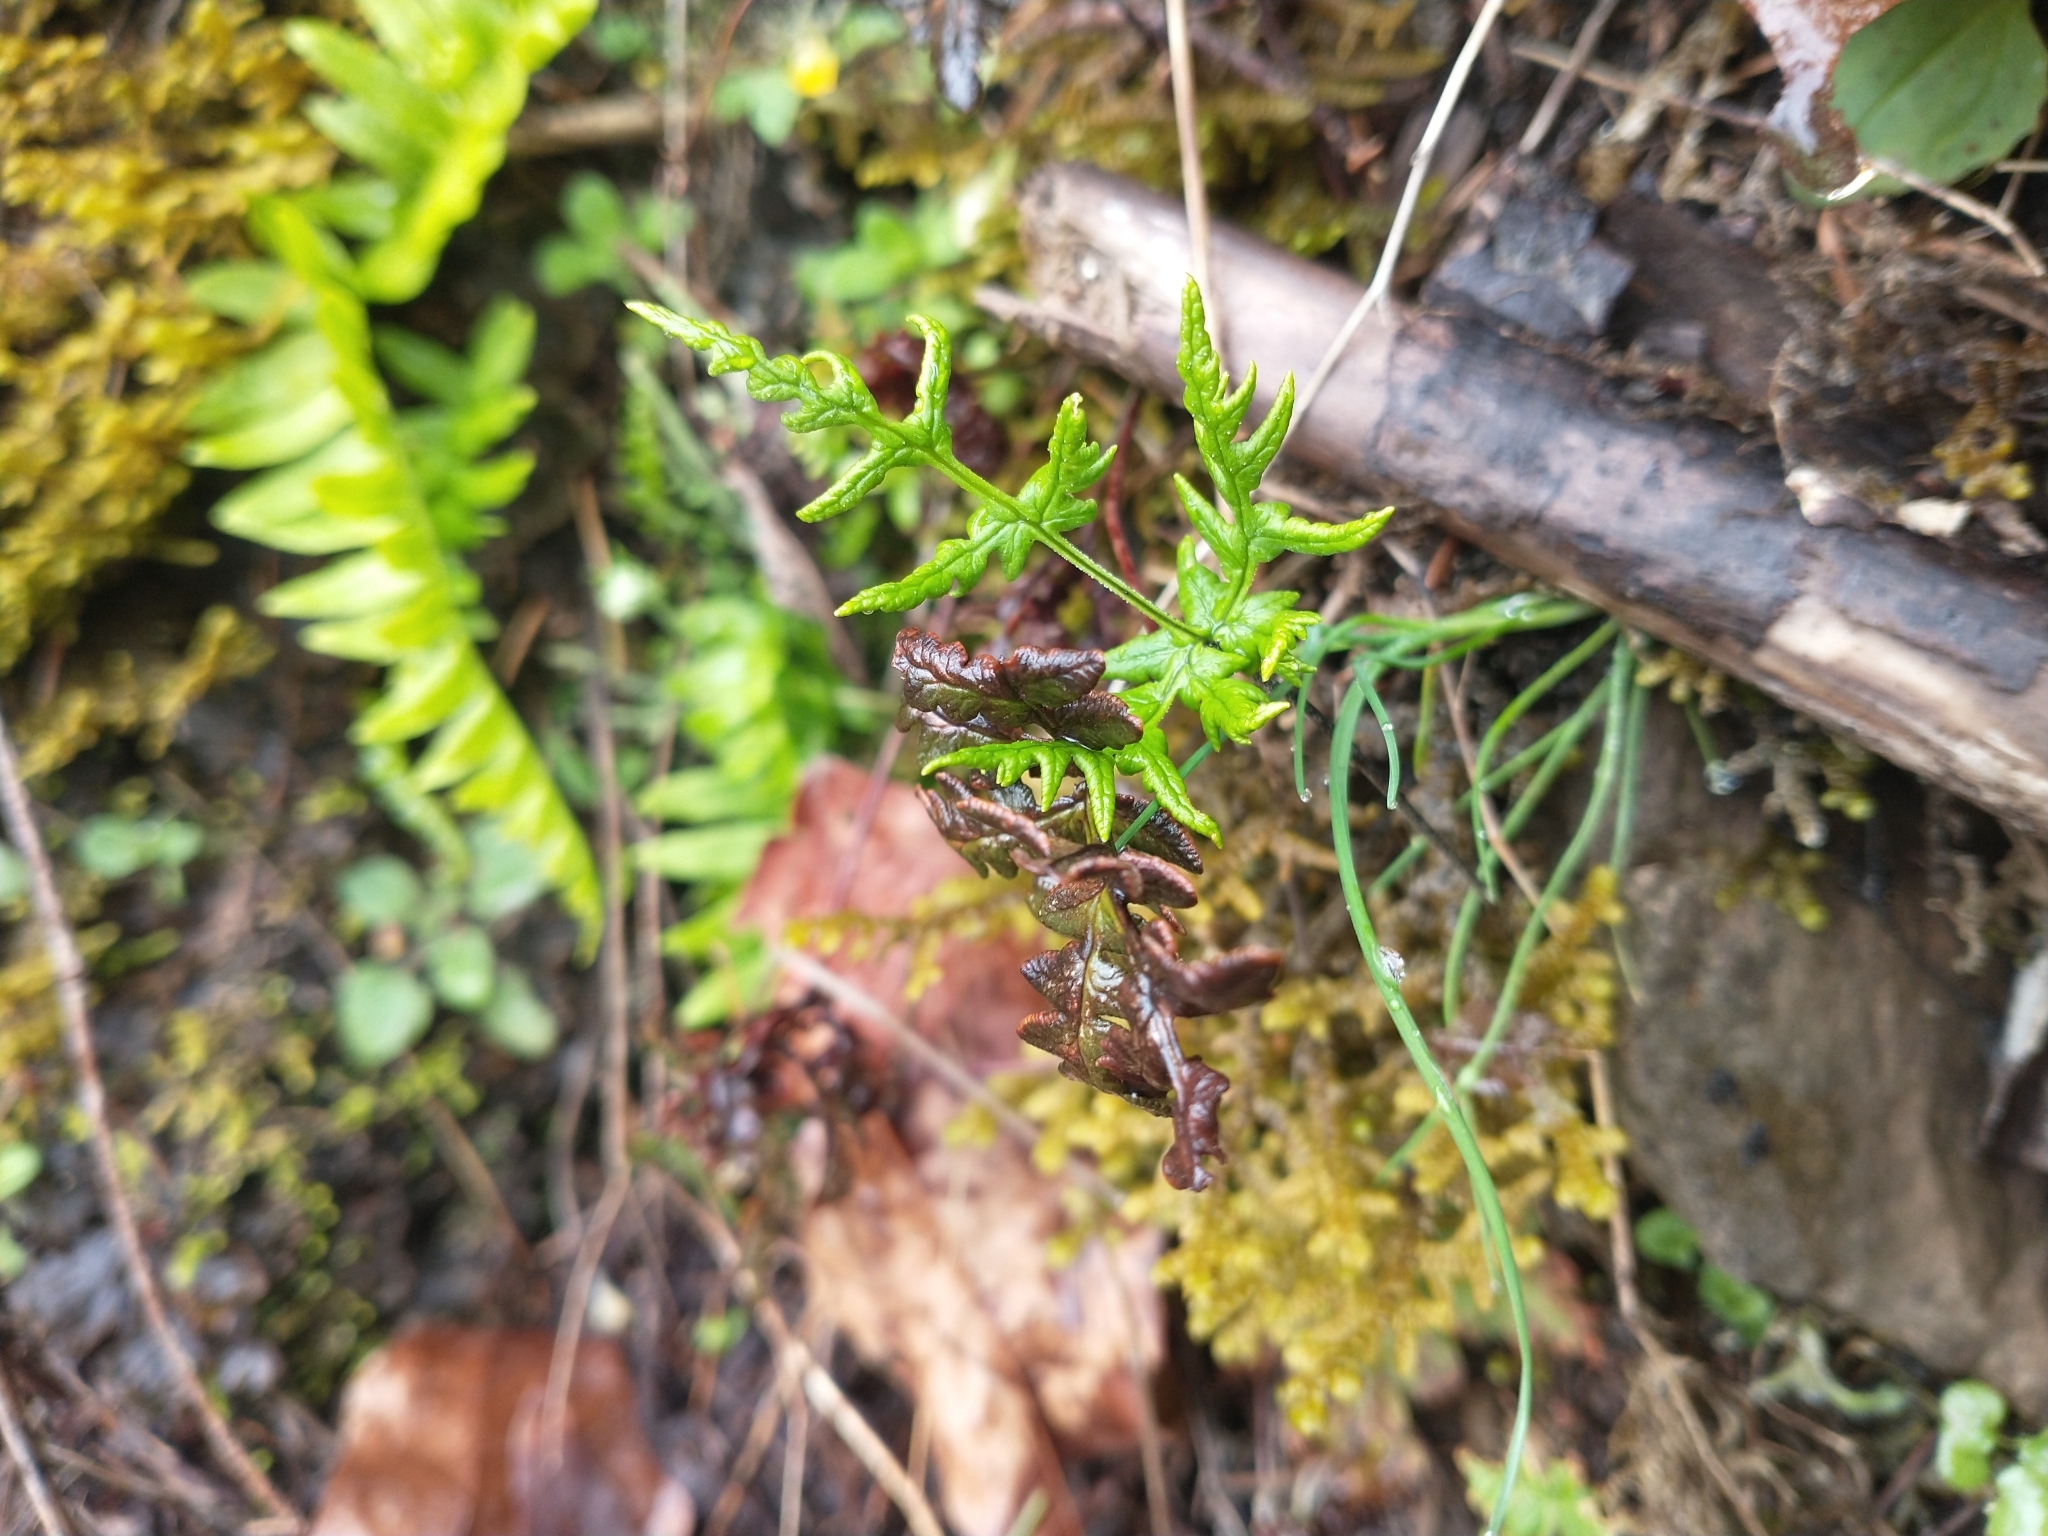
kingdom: Plantae
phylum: Tracheophyta
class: Polypodiopsida
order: Polypodiales
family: Pteridaceae
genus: Pentagramma
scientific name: Pentagramma triangularis
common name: Gold fern
